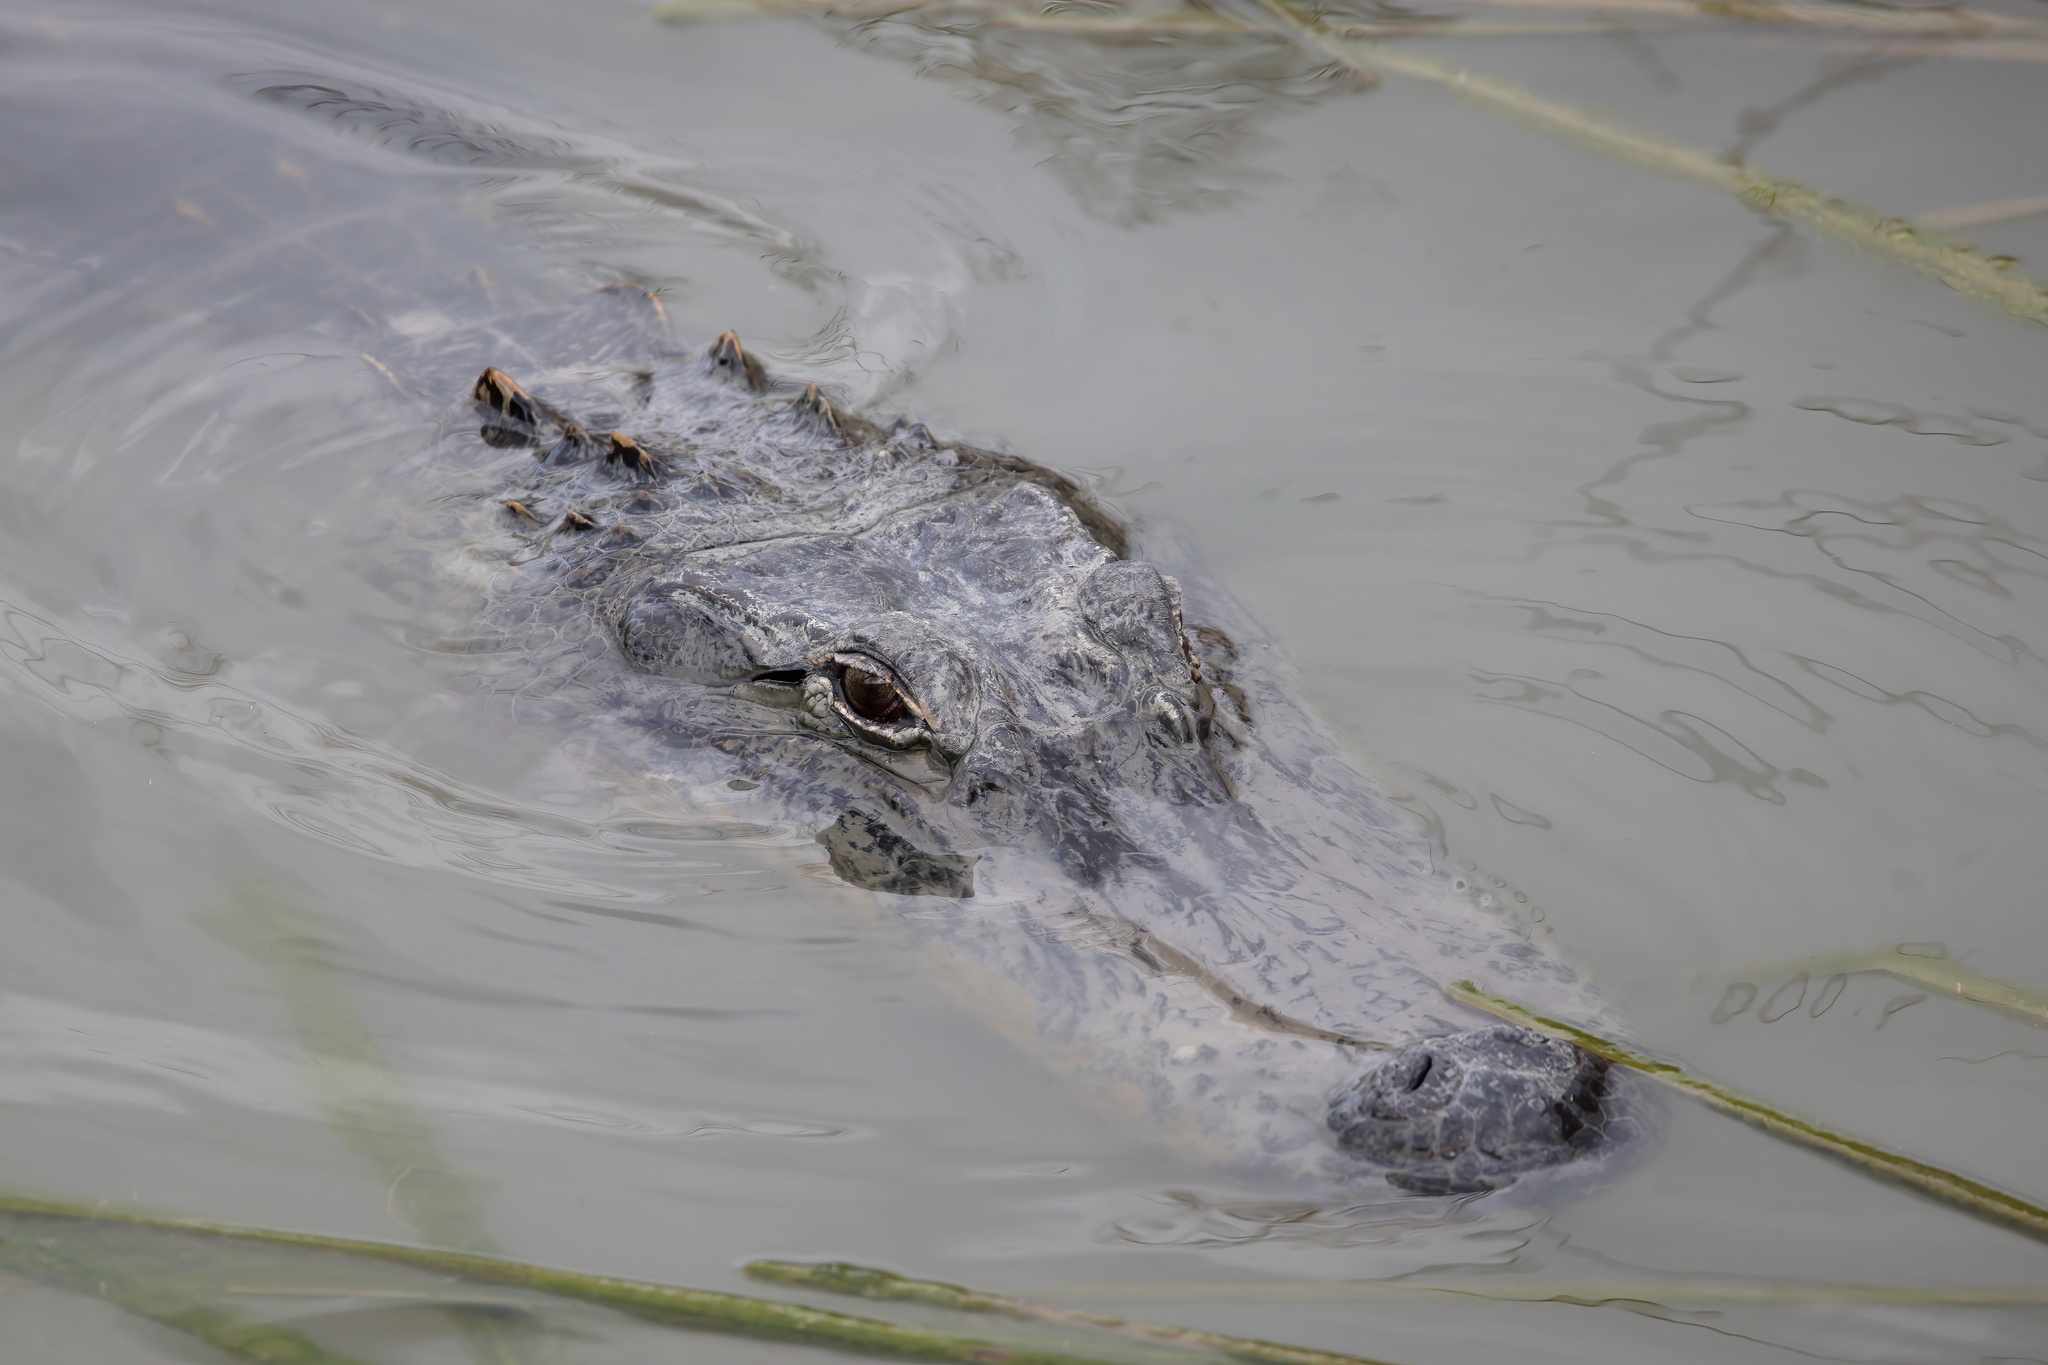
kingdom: Animalia
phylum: Chordata
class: Crocodylia
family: Alligatoridae
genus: Alligator
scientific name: Alligator mississippiensis
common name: American alligator
